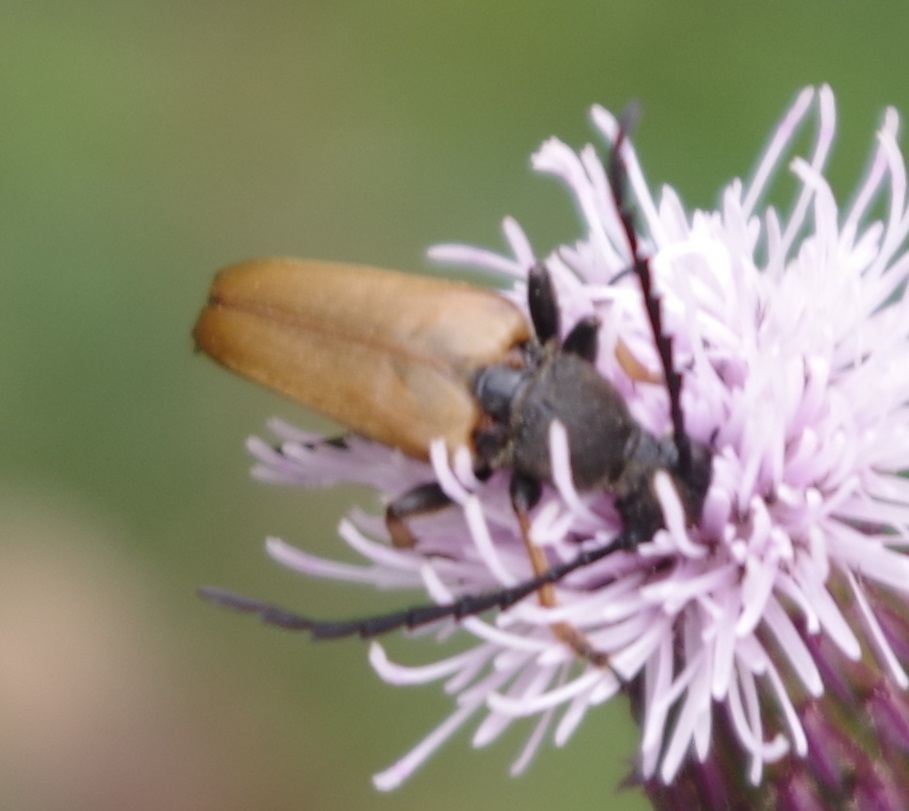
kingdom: Animalia
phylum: Arthropoda
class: Insecta
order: Coleoptera
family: Cerambycidae
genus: Stictoleptura
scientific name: Stictoleptura rubra
